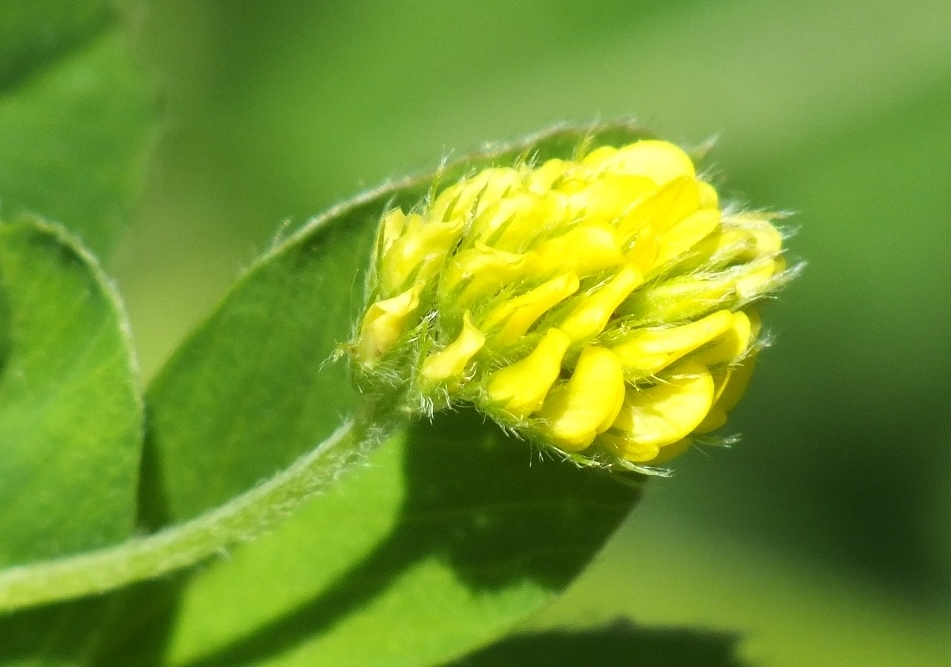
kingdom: Plantae
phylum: Tracheophyta
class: Magnoliopsida
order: Fabales
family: Fabaceae
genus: Medicago
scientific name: Medicago lupulina
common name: Black medick
